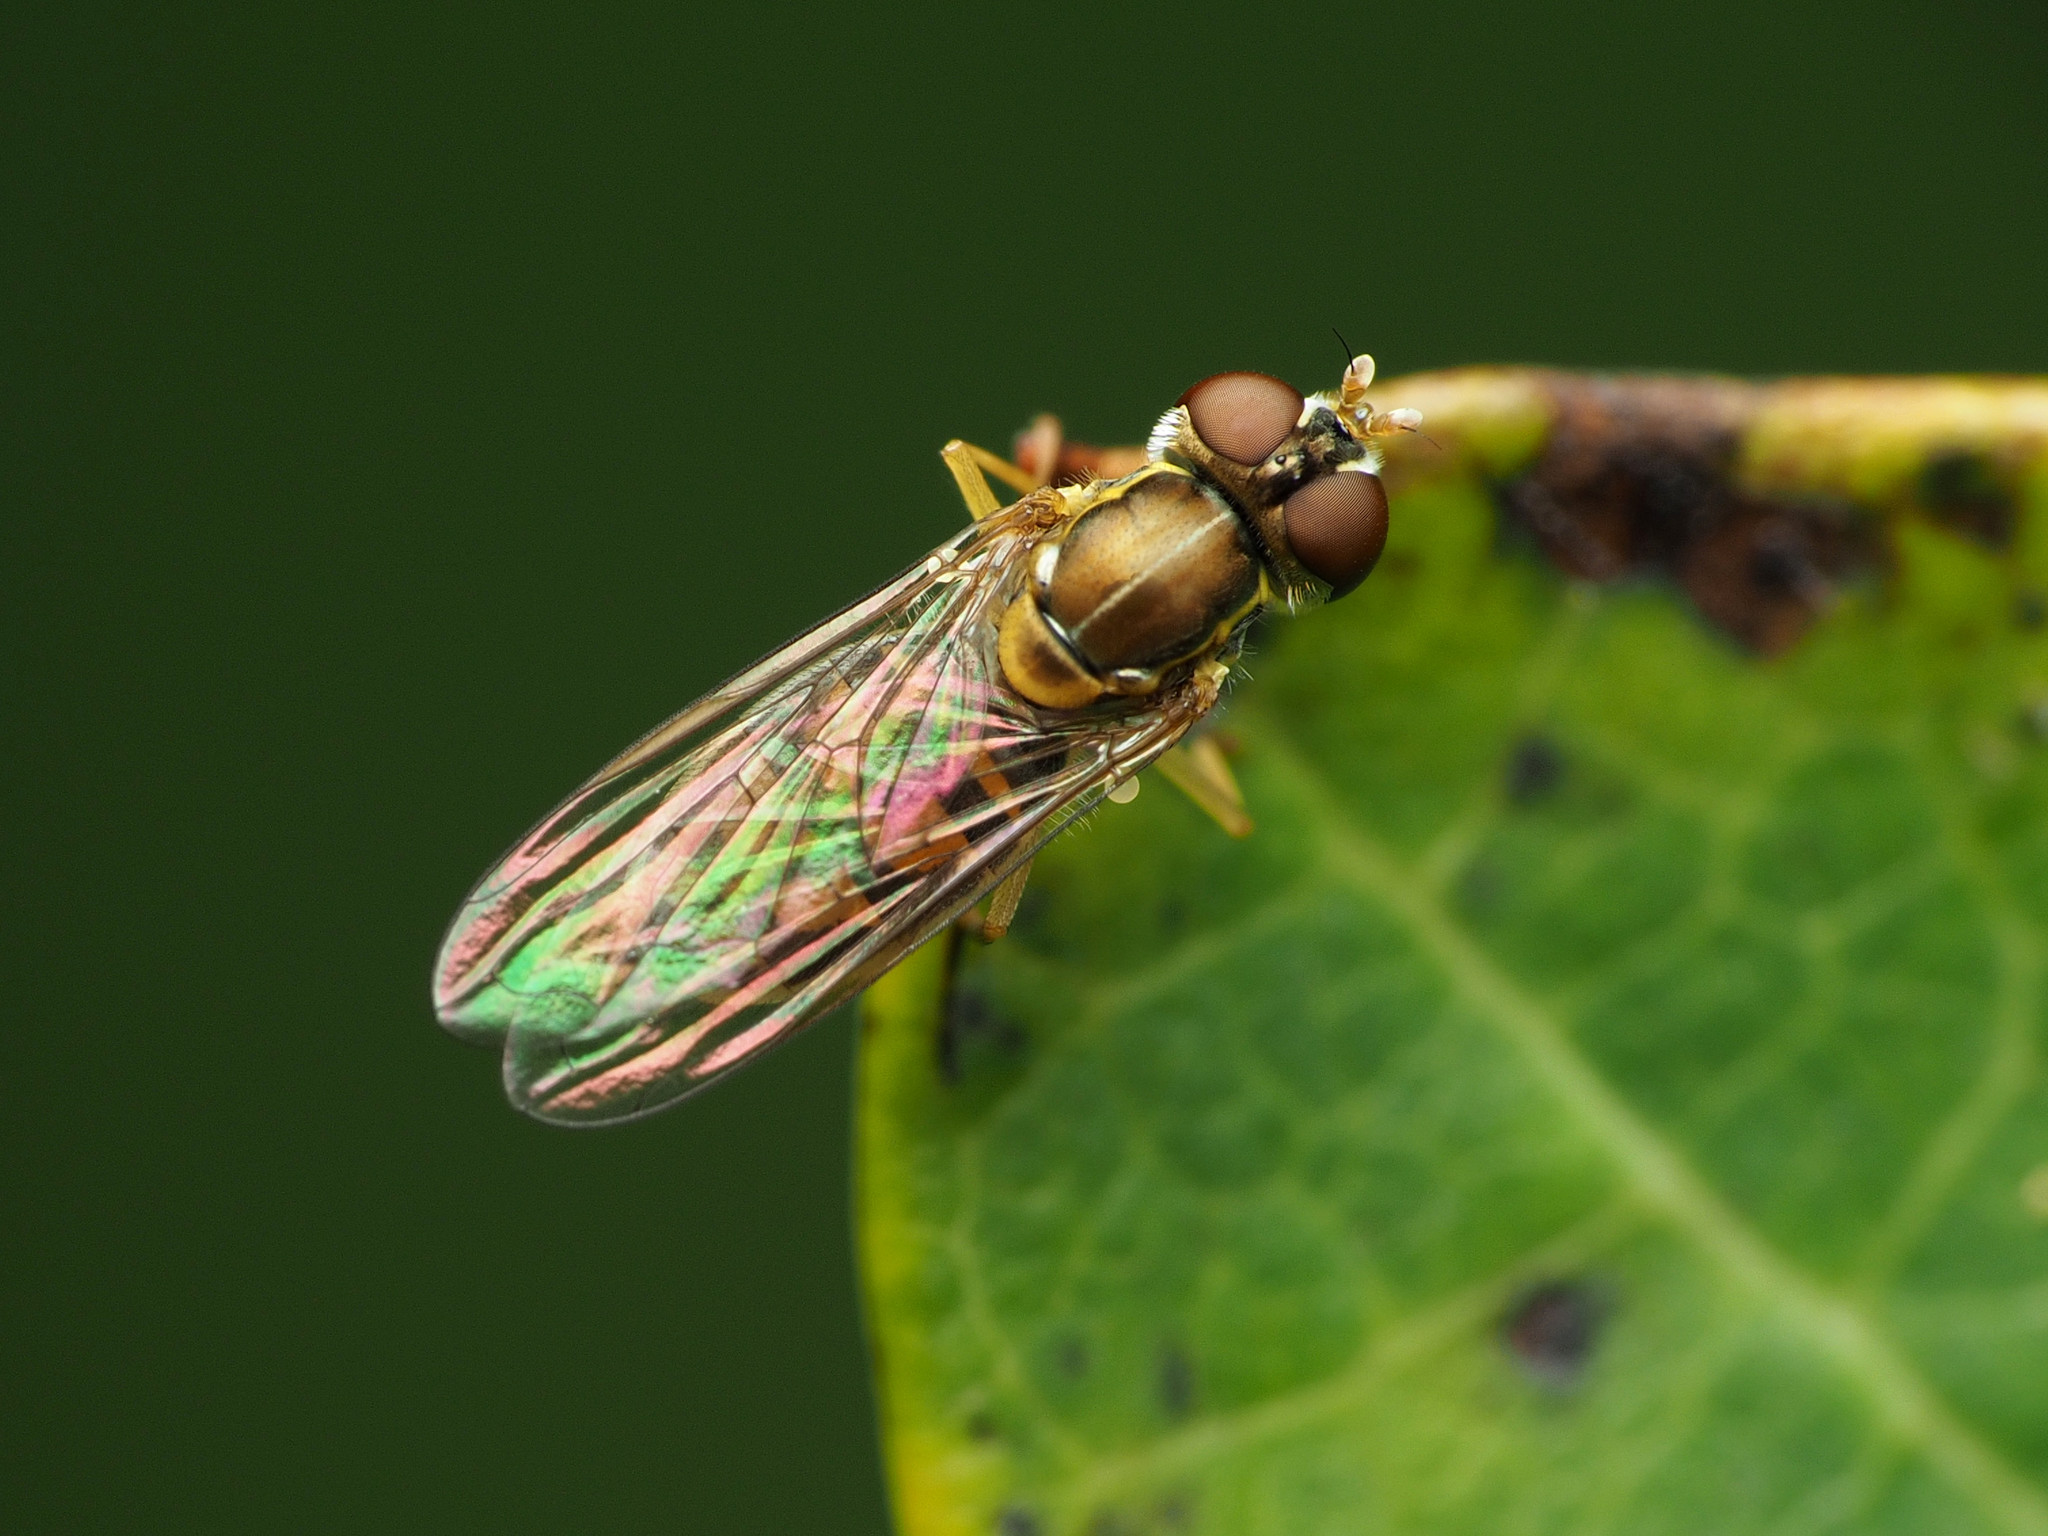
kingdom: Animalia
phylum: Arthropoda
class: Insecta
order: Diptera
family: Syrphidae
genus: Toxomerus
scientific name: Toxomerus marginatus
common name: Syrphid fly
